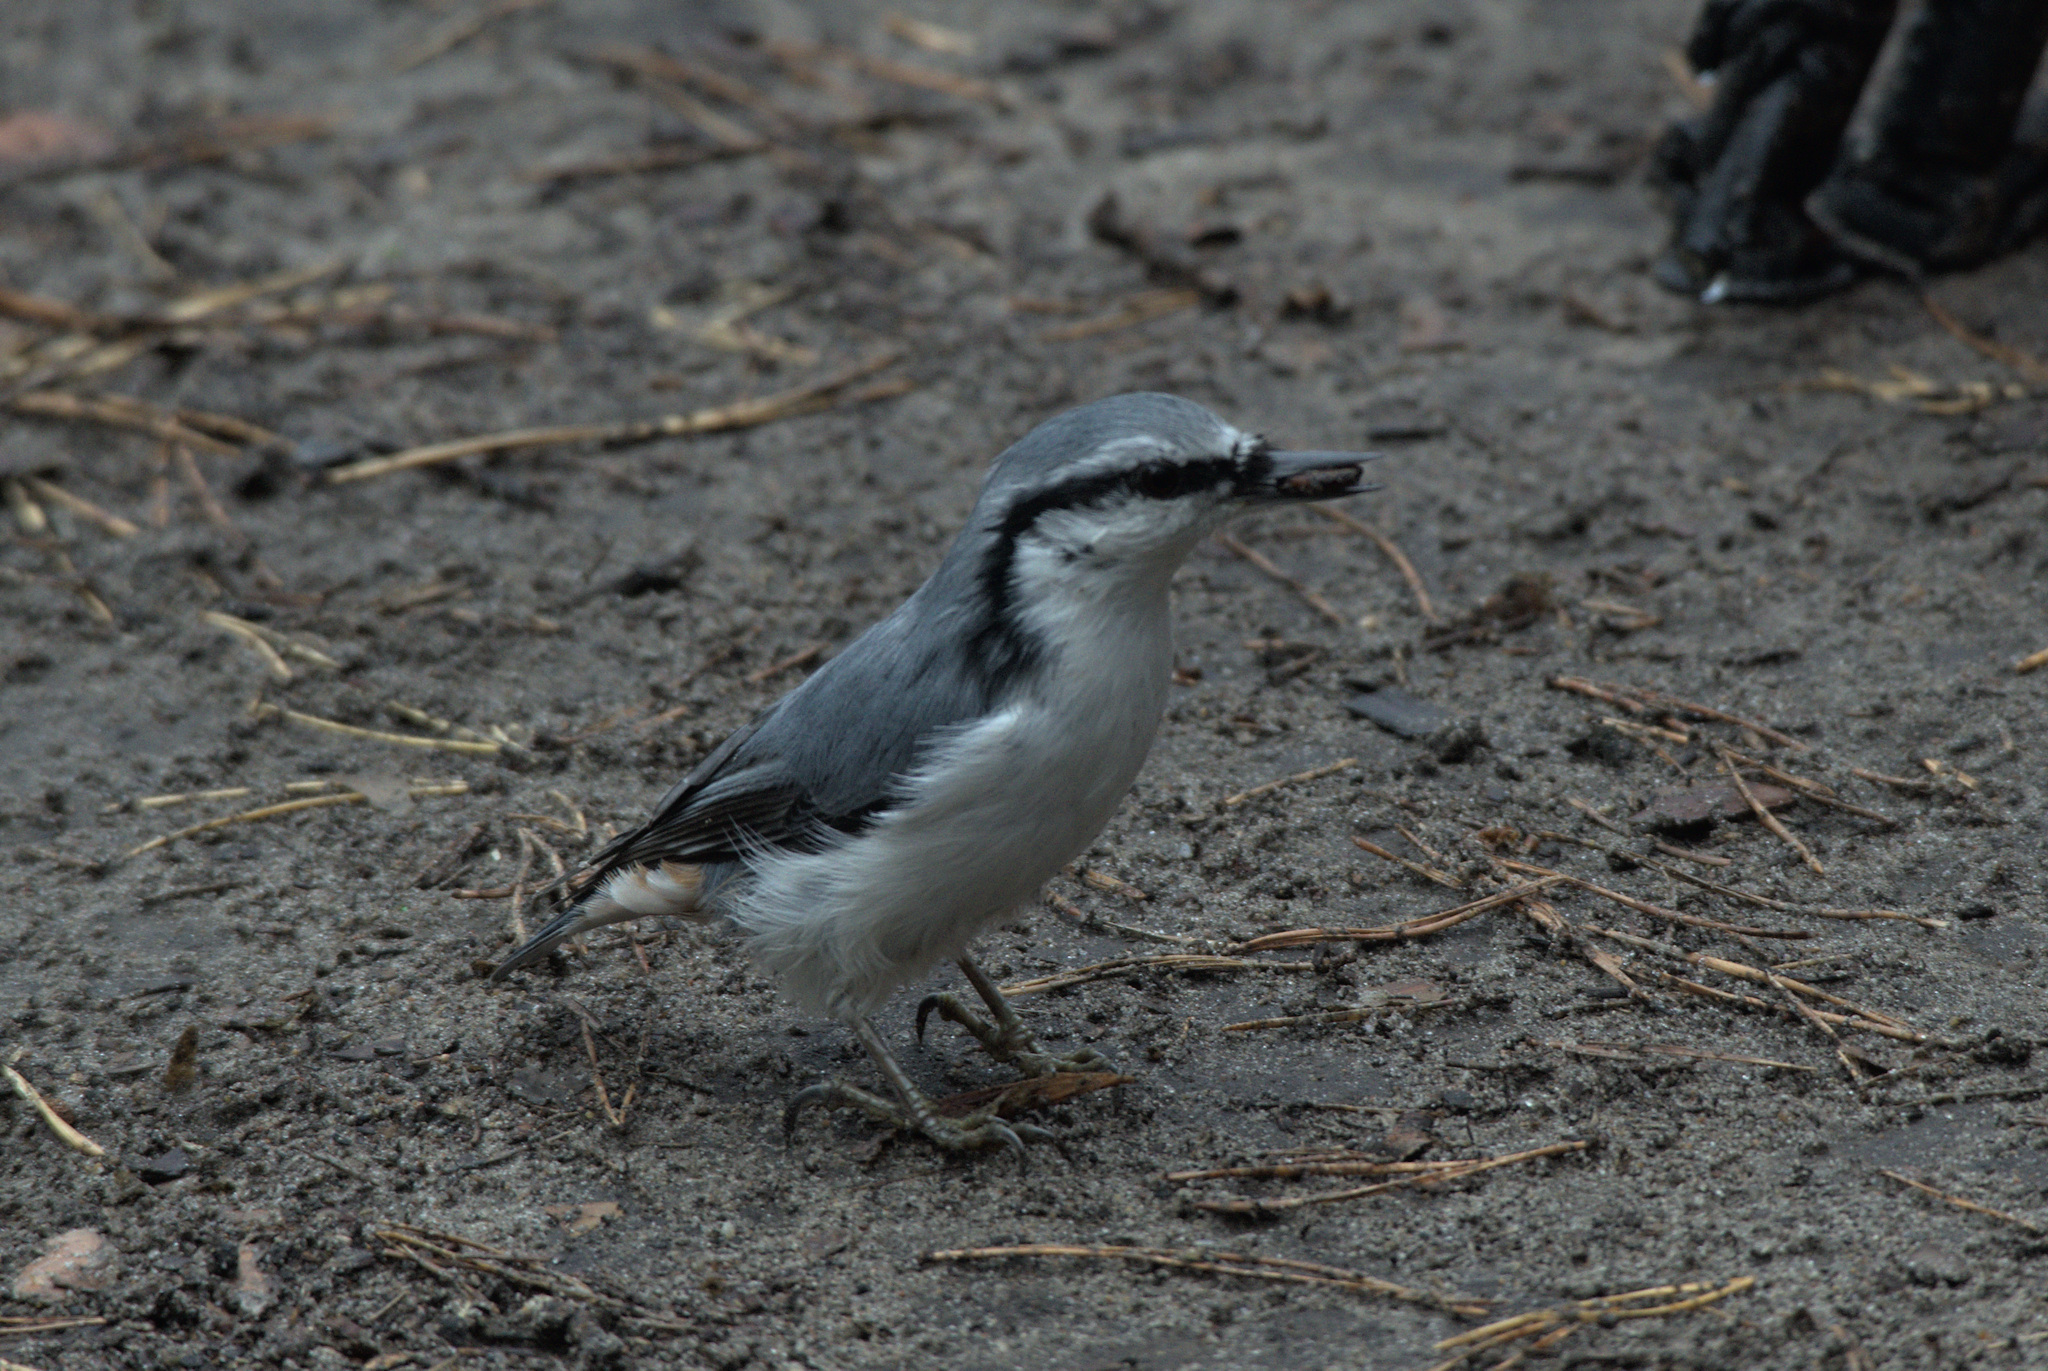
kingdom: Animalia
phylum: Chordata
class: Aves
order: Passeriformes
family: Sittidae
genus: Sitta
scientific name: Sitta europaea
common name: Eurasian nuthatch
